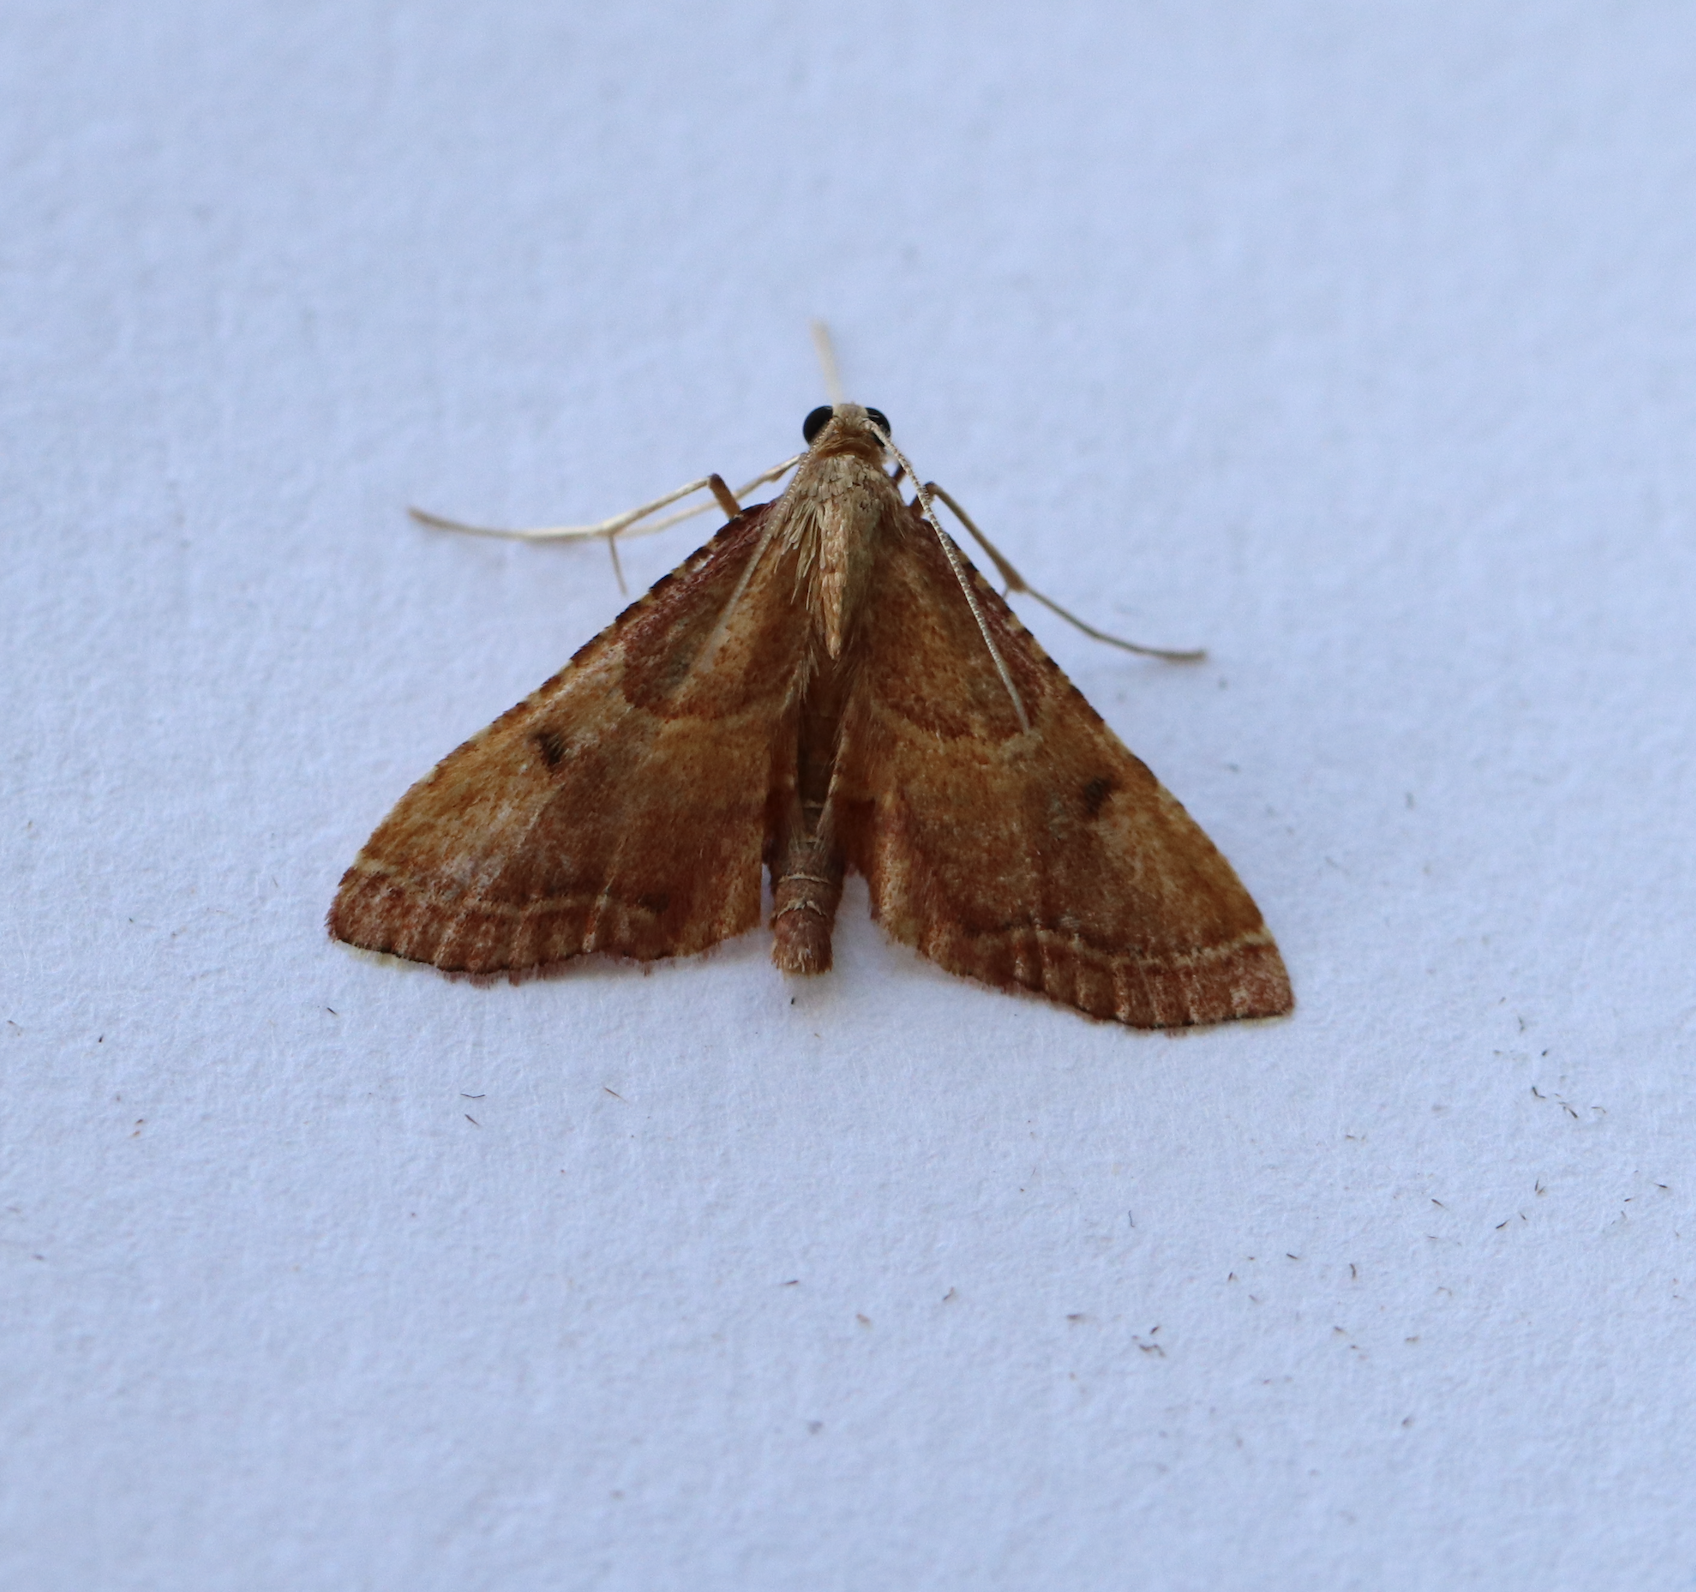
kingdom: Animalia
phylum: Arthropoda
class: Insecta
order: Lepidoptera
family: Pyralidae
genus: Endotricha
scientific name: Endotricha flammealis
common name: Rosy tabby
